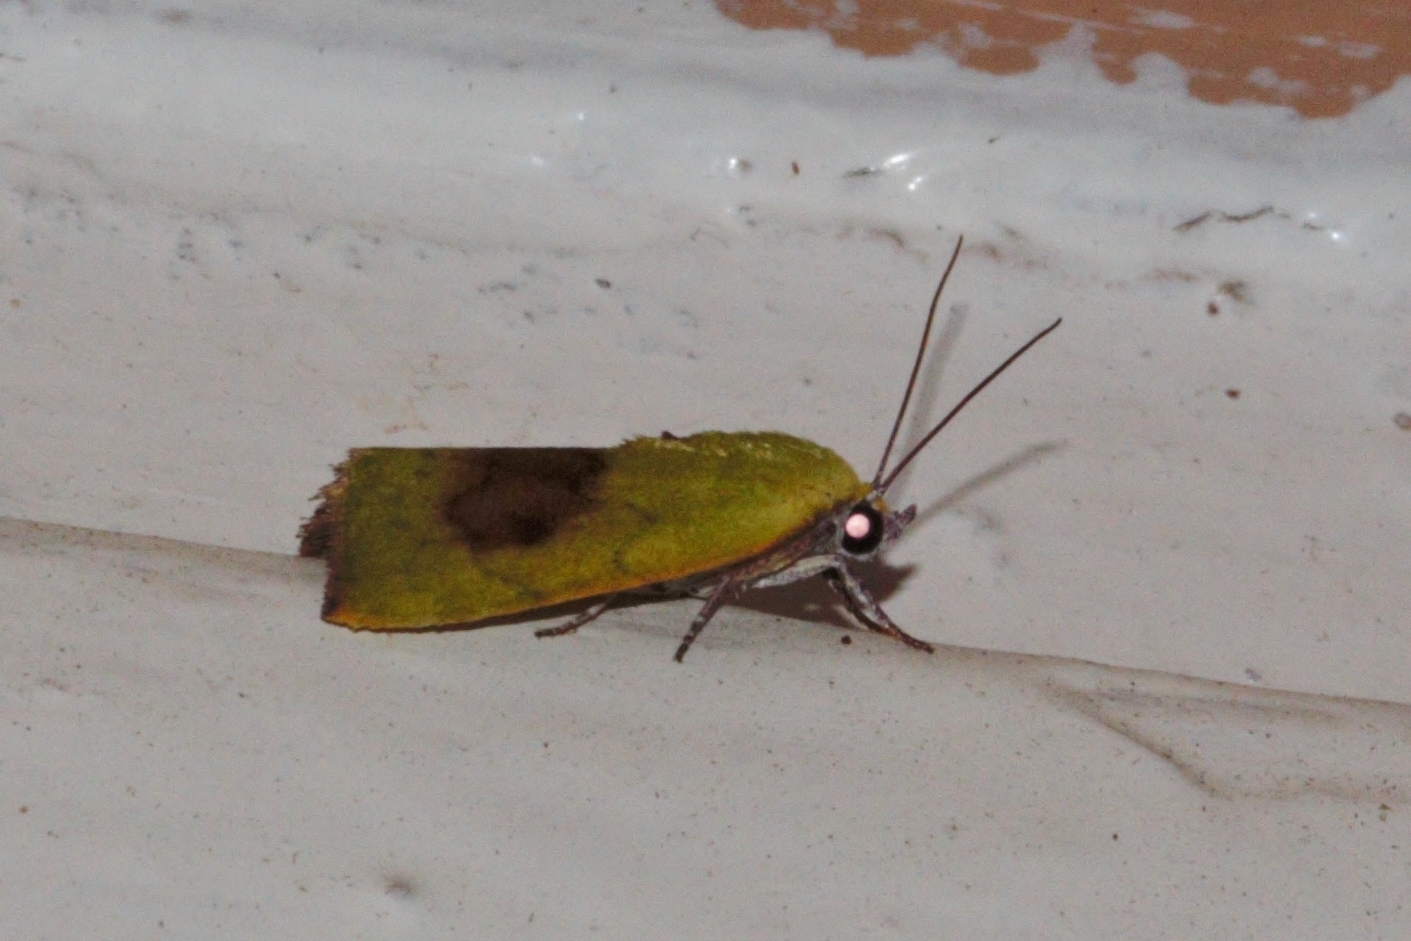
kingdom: Animalia
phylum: Arthropoda
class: Insecta
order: Lepidoptera
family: Nolidae
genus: Earias
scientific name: Earias biplaga
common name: Spiny bollworm
